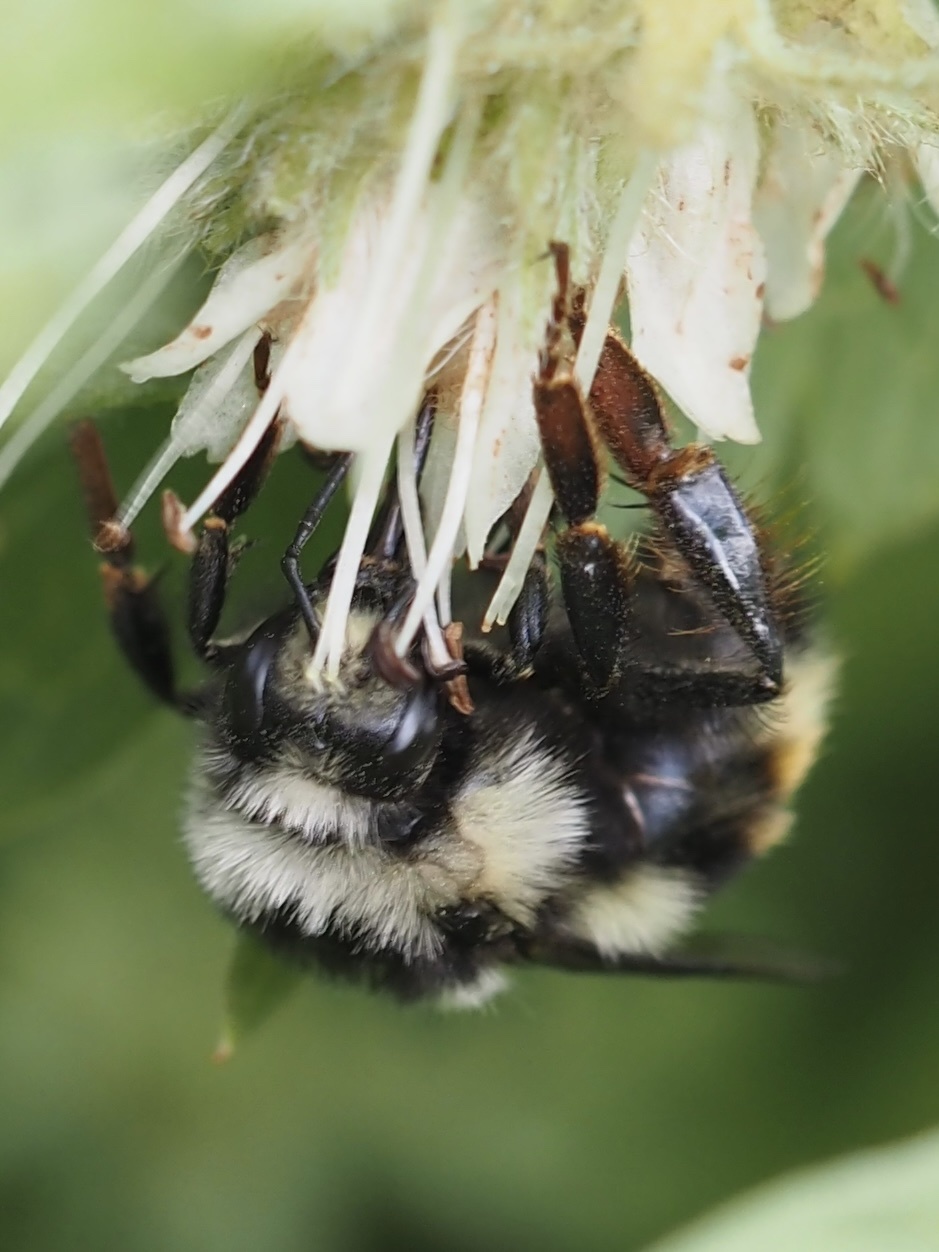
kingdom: Animalia
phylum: Arthropoda
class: Insecta
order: Hymenoptera
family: Apidae
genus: Bombus
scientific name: Bombus vancouverensis
